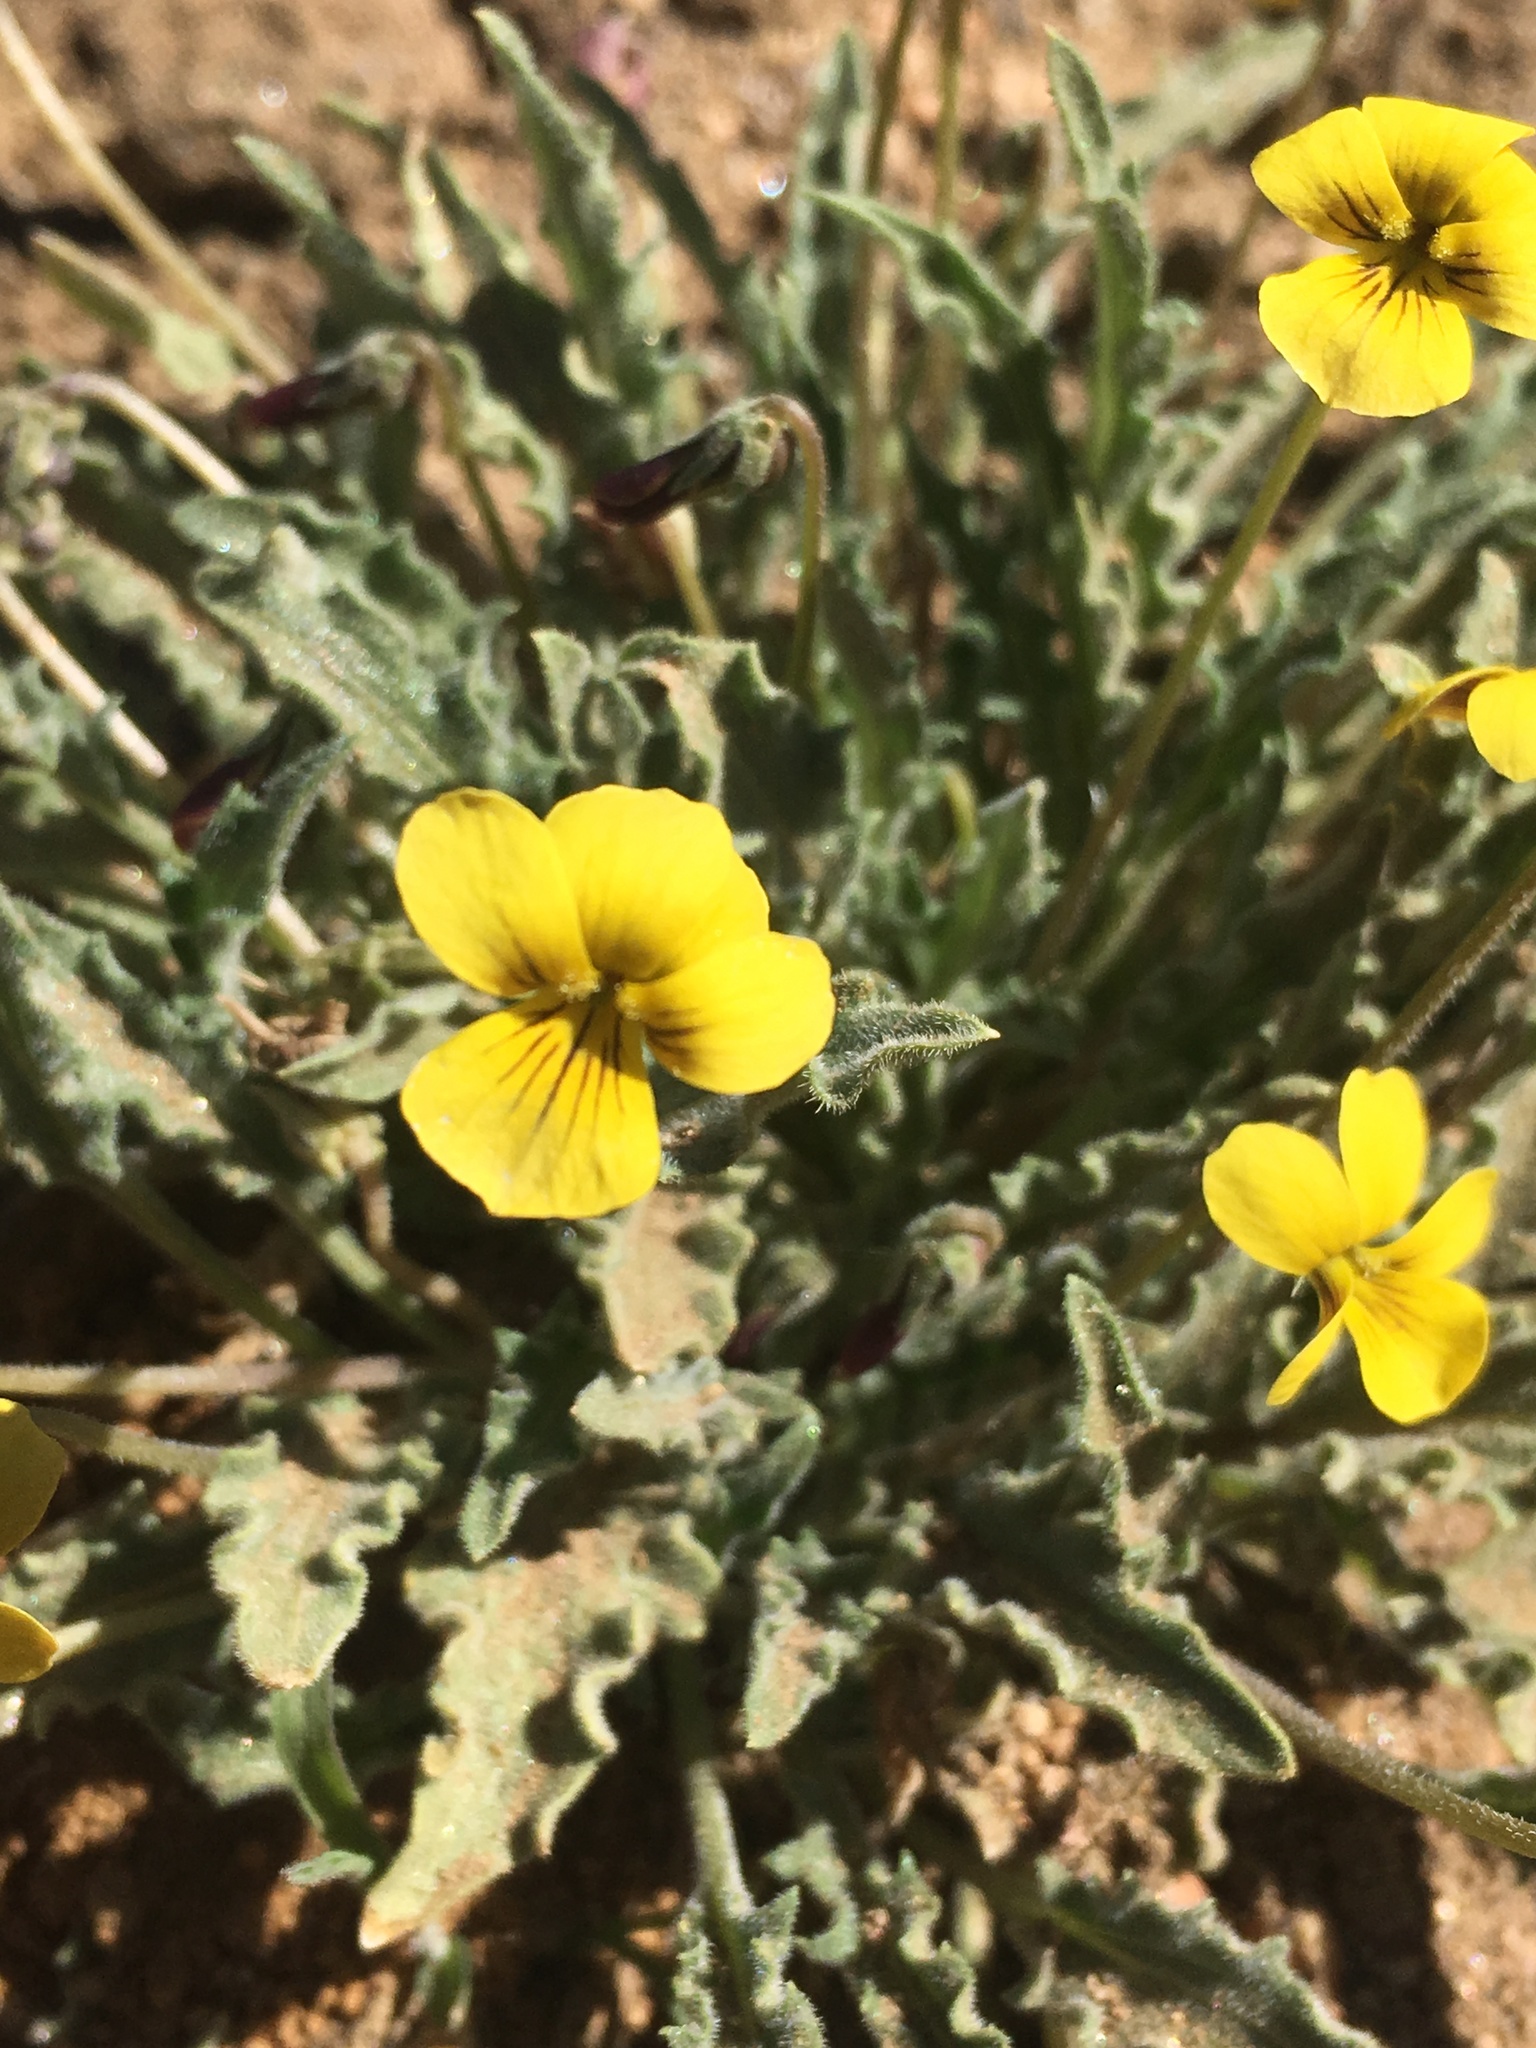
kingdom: Plantae
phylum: Tracheophyta
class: Magnoliopsida
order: Malpighiales
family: Violaceae
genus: Viola
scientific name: Viola pinetorum
